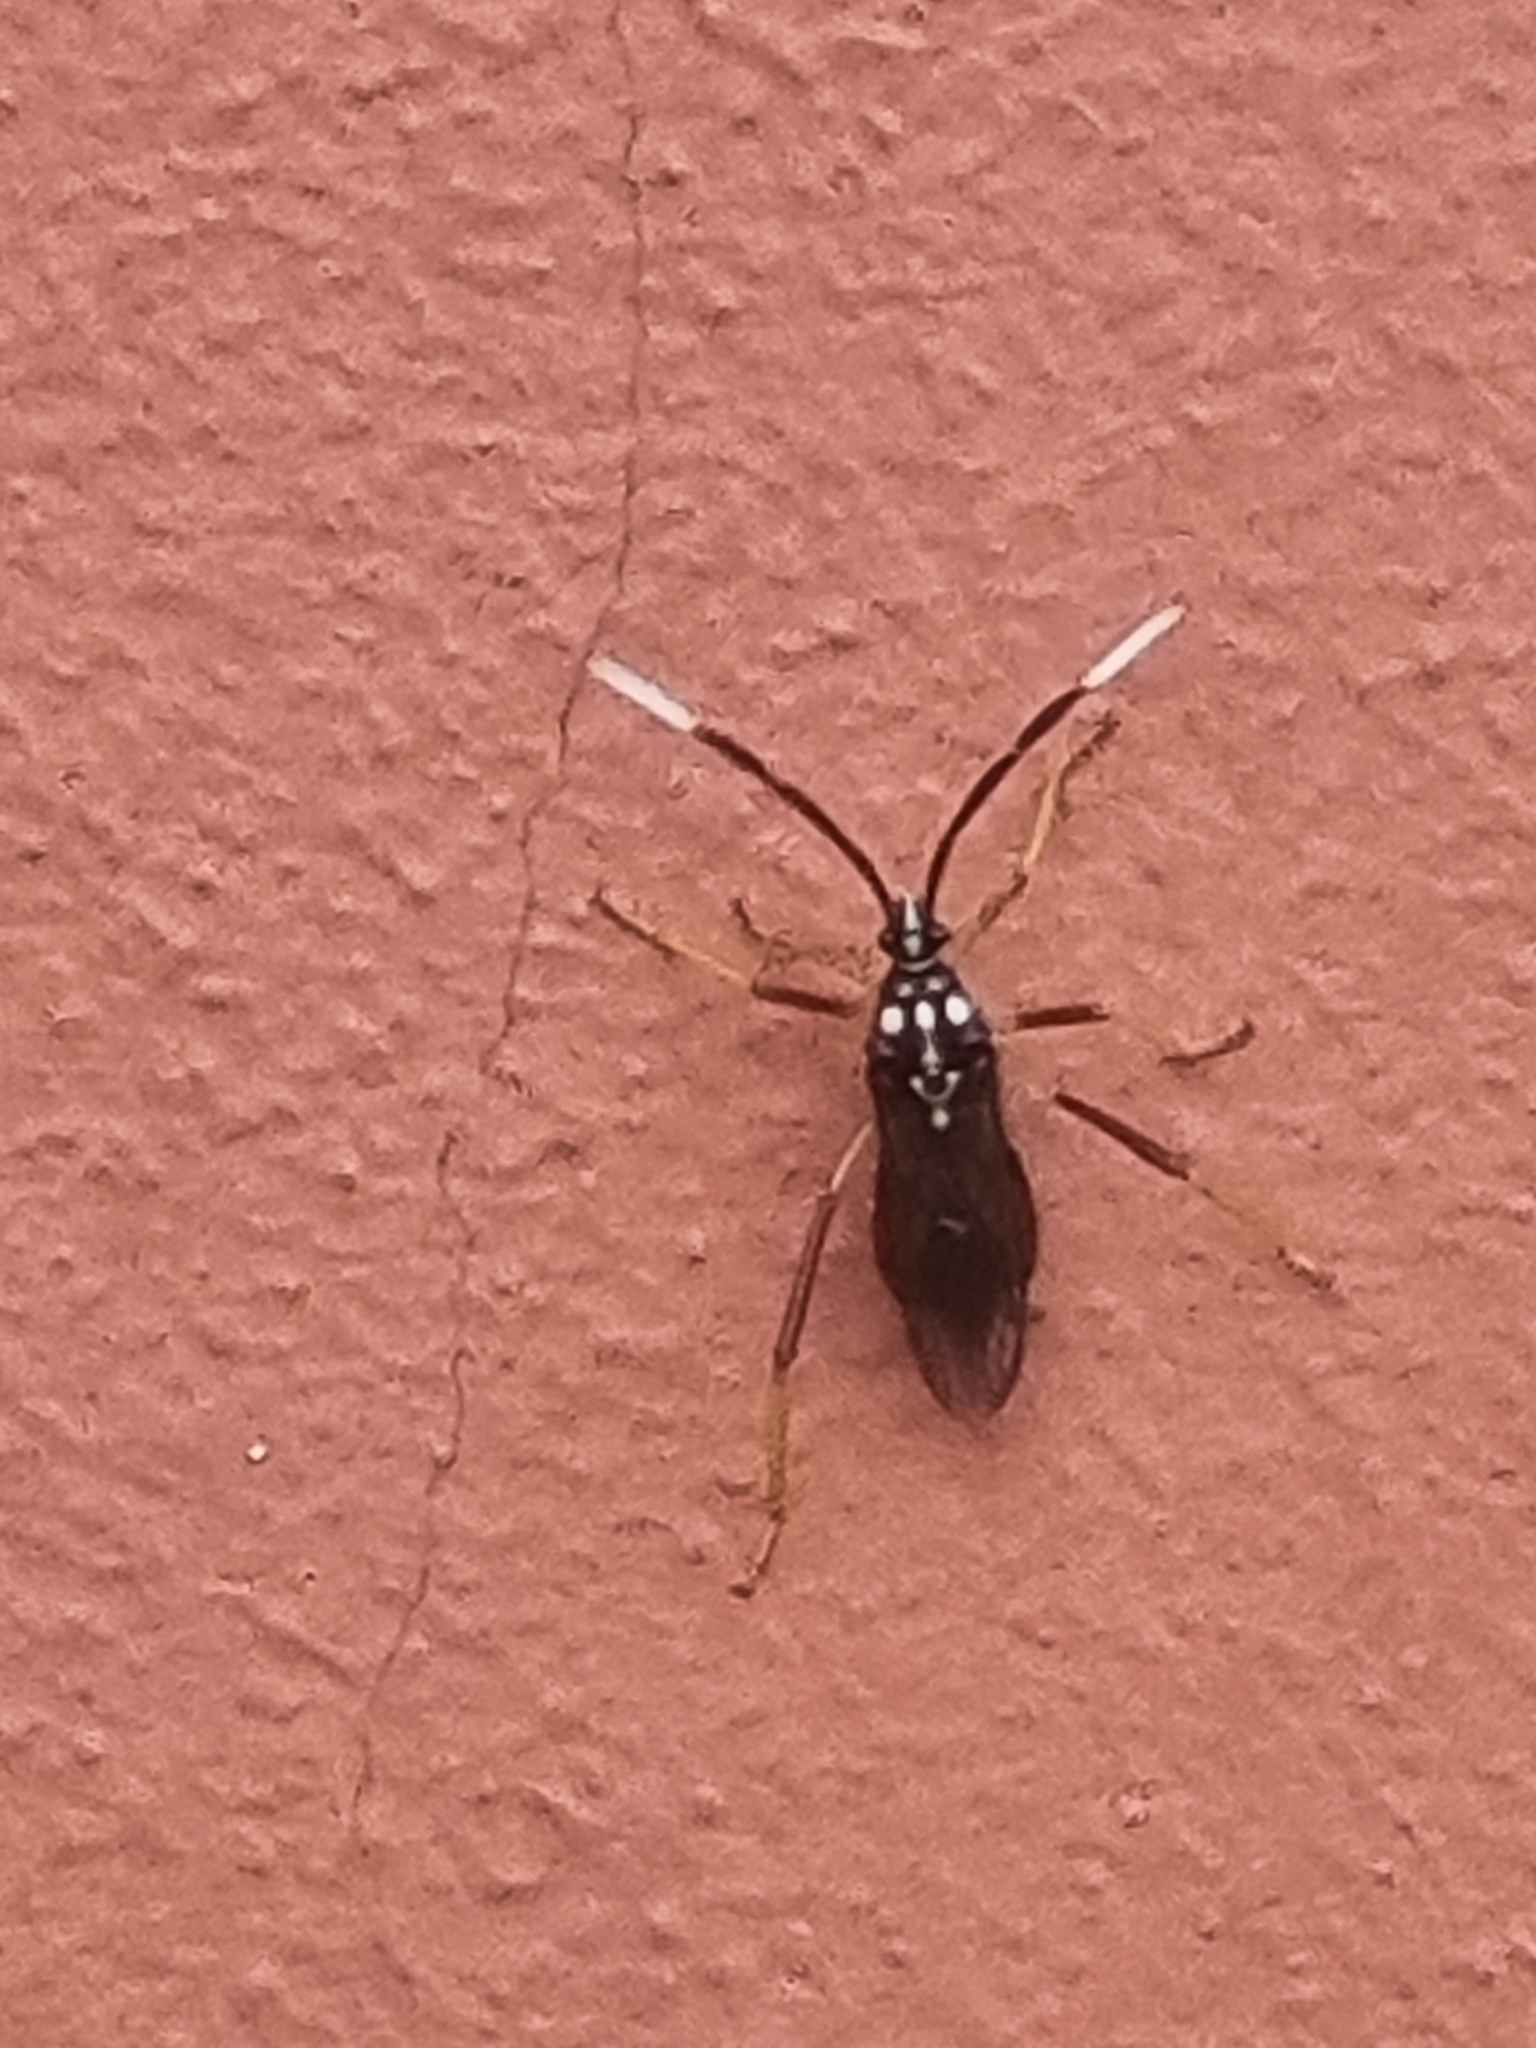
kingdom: Animalia
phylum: Arthropoda
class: Insecta
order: Hemiptera
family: Coreidae
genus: Holhymenia
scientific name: Holhymenia histrio
